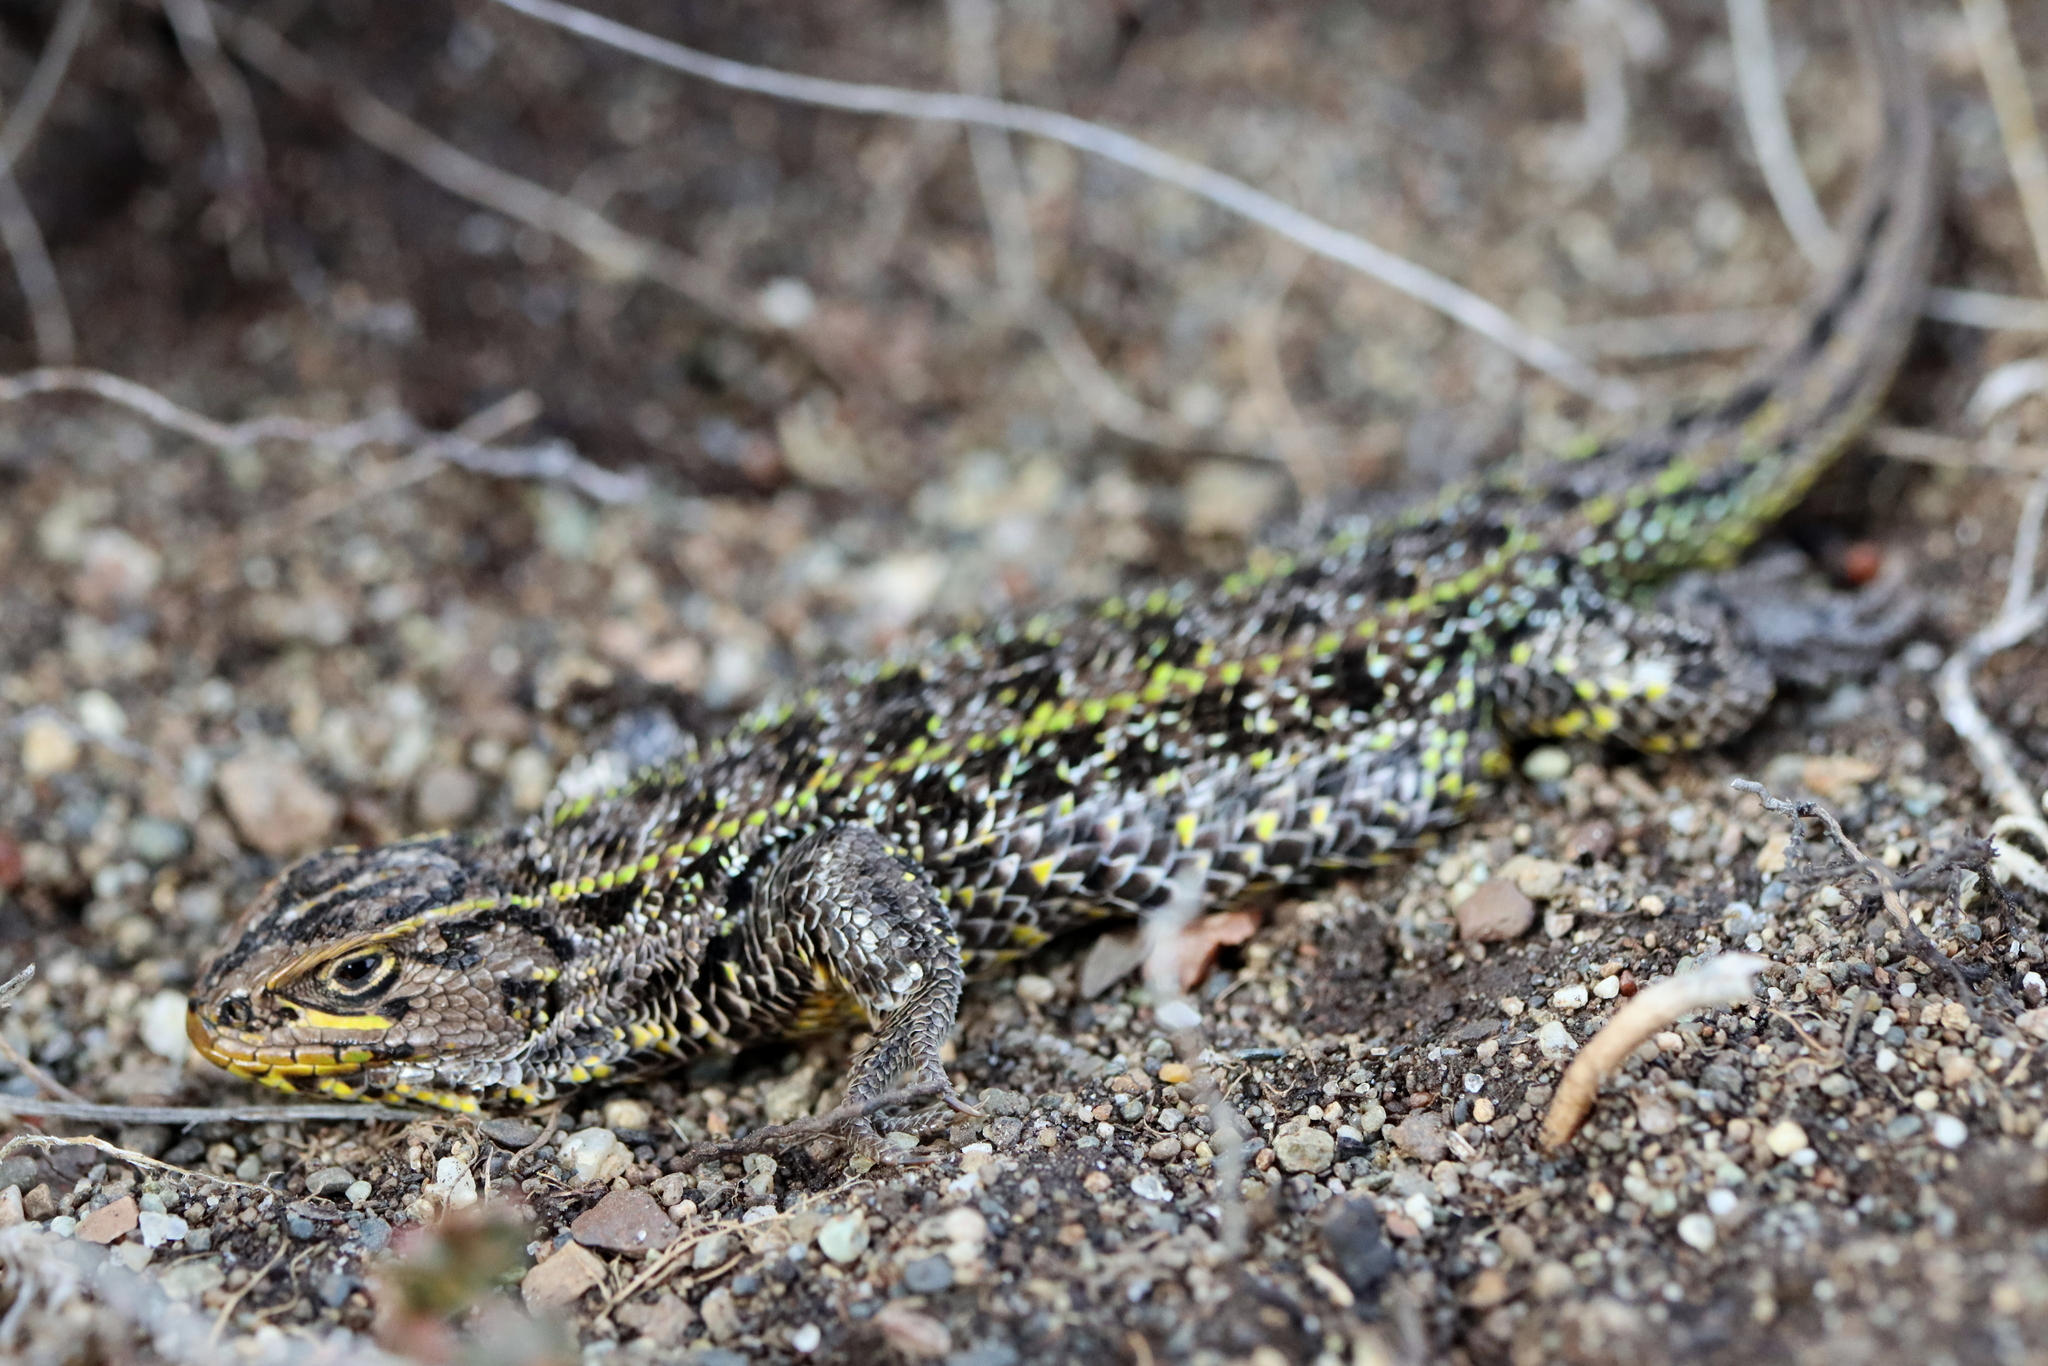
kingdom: Animalia
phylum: Chordata
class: Squamata
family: Liolaemidae
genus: Liolaemus
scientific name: Liolaemus magellanicus
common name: Magellan's tree iguana
